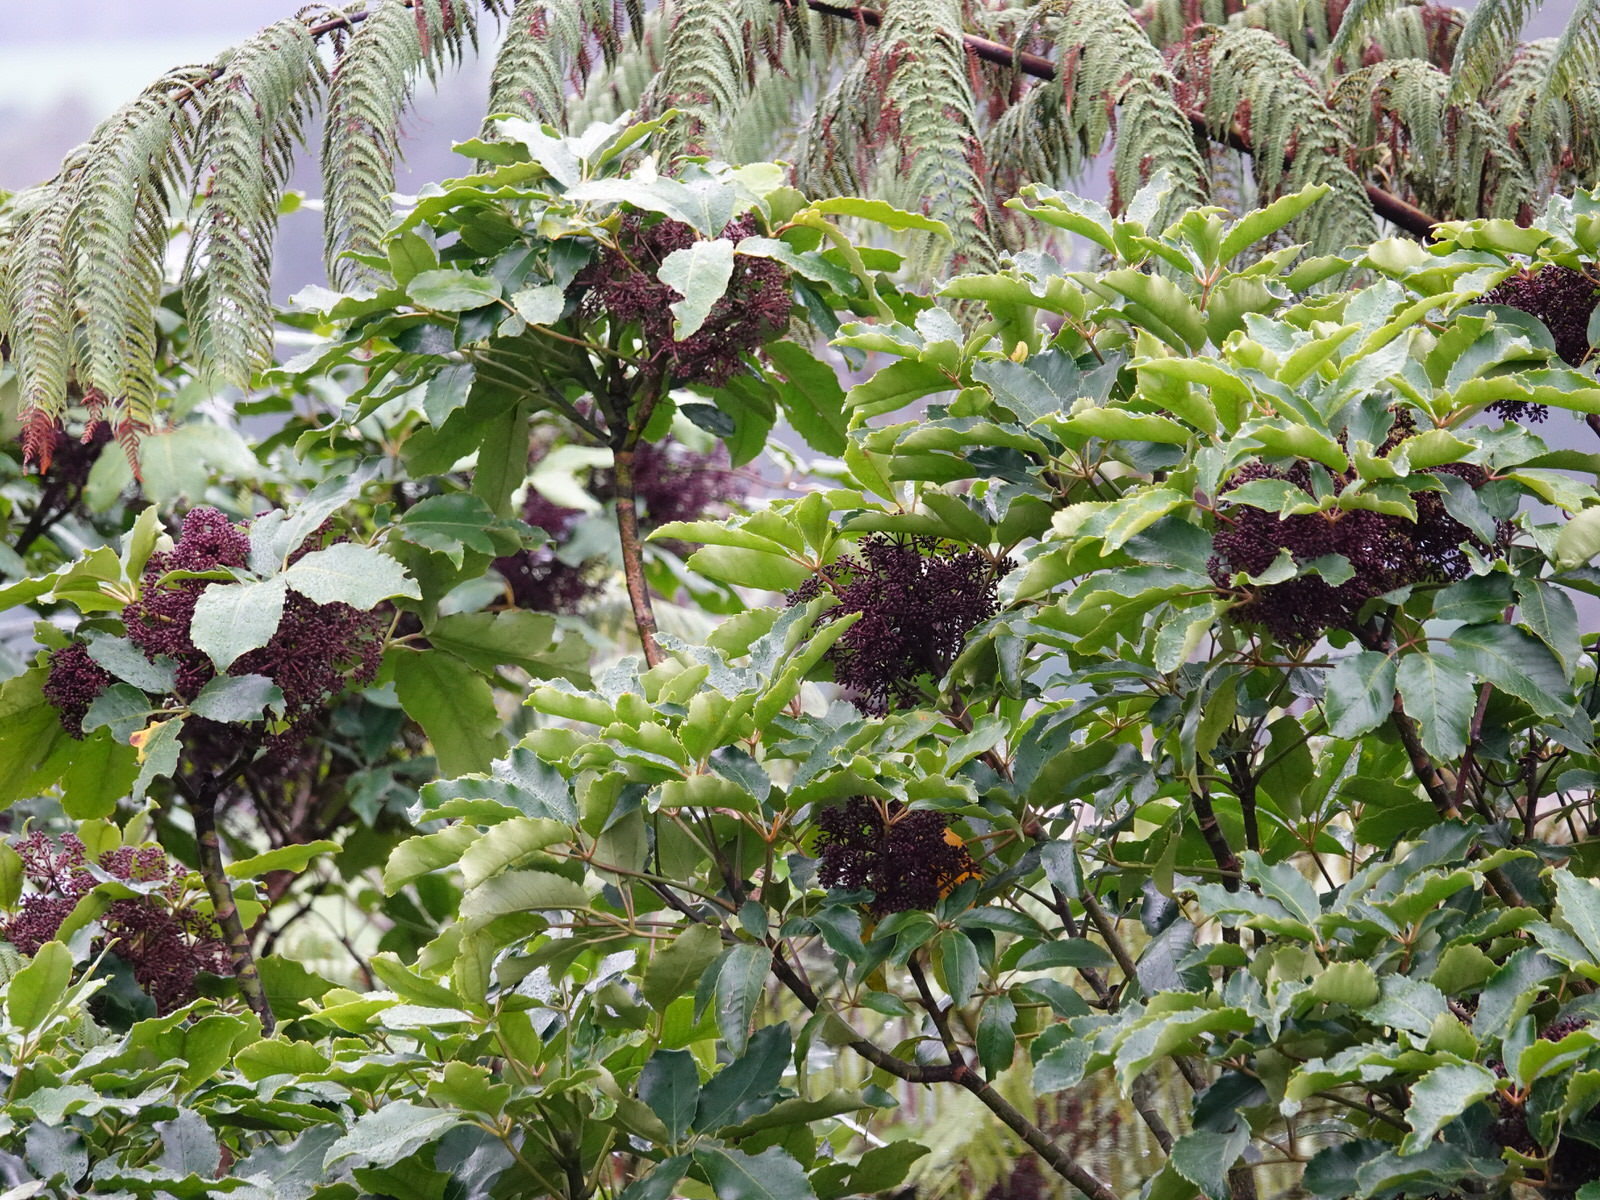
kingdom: Plantae
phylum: Tracheophyta
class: Magnoliopsida
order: Apiales
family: Araliaceae
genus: Neopanax
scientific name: Neopanax arboreus
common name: Five-fingers
